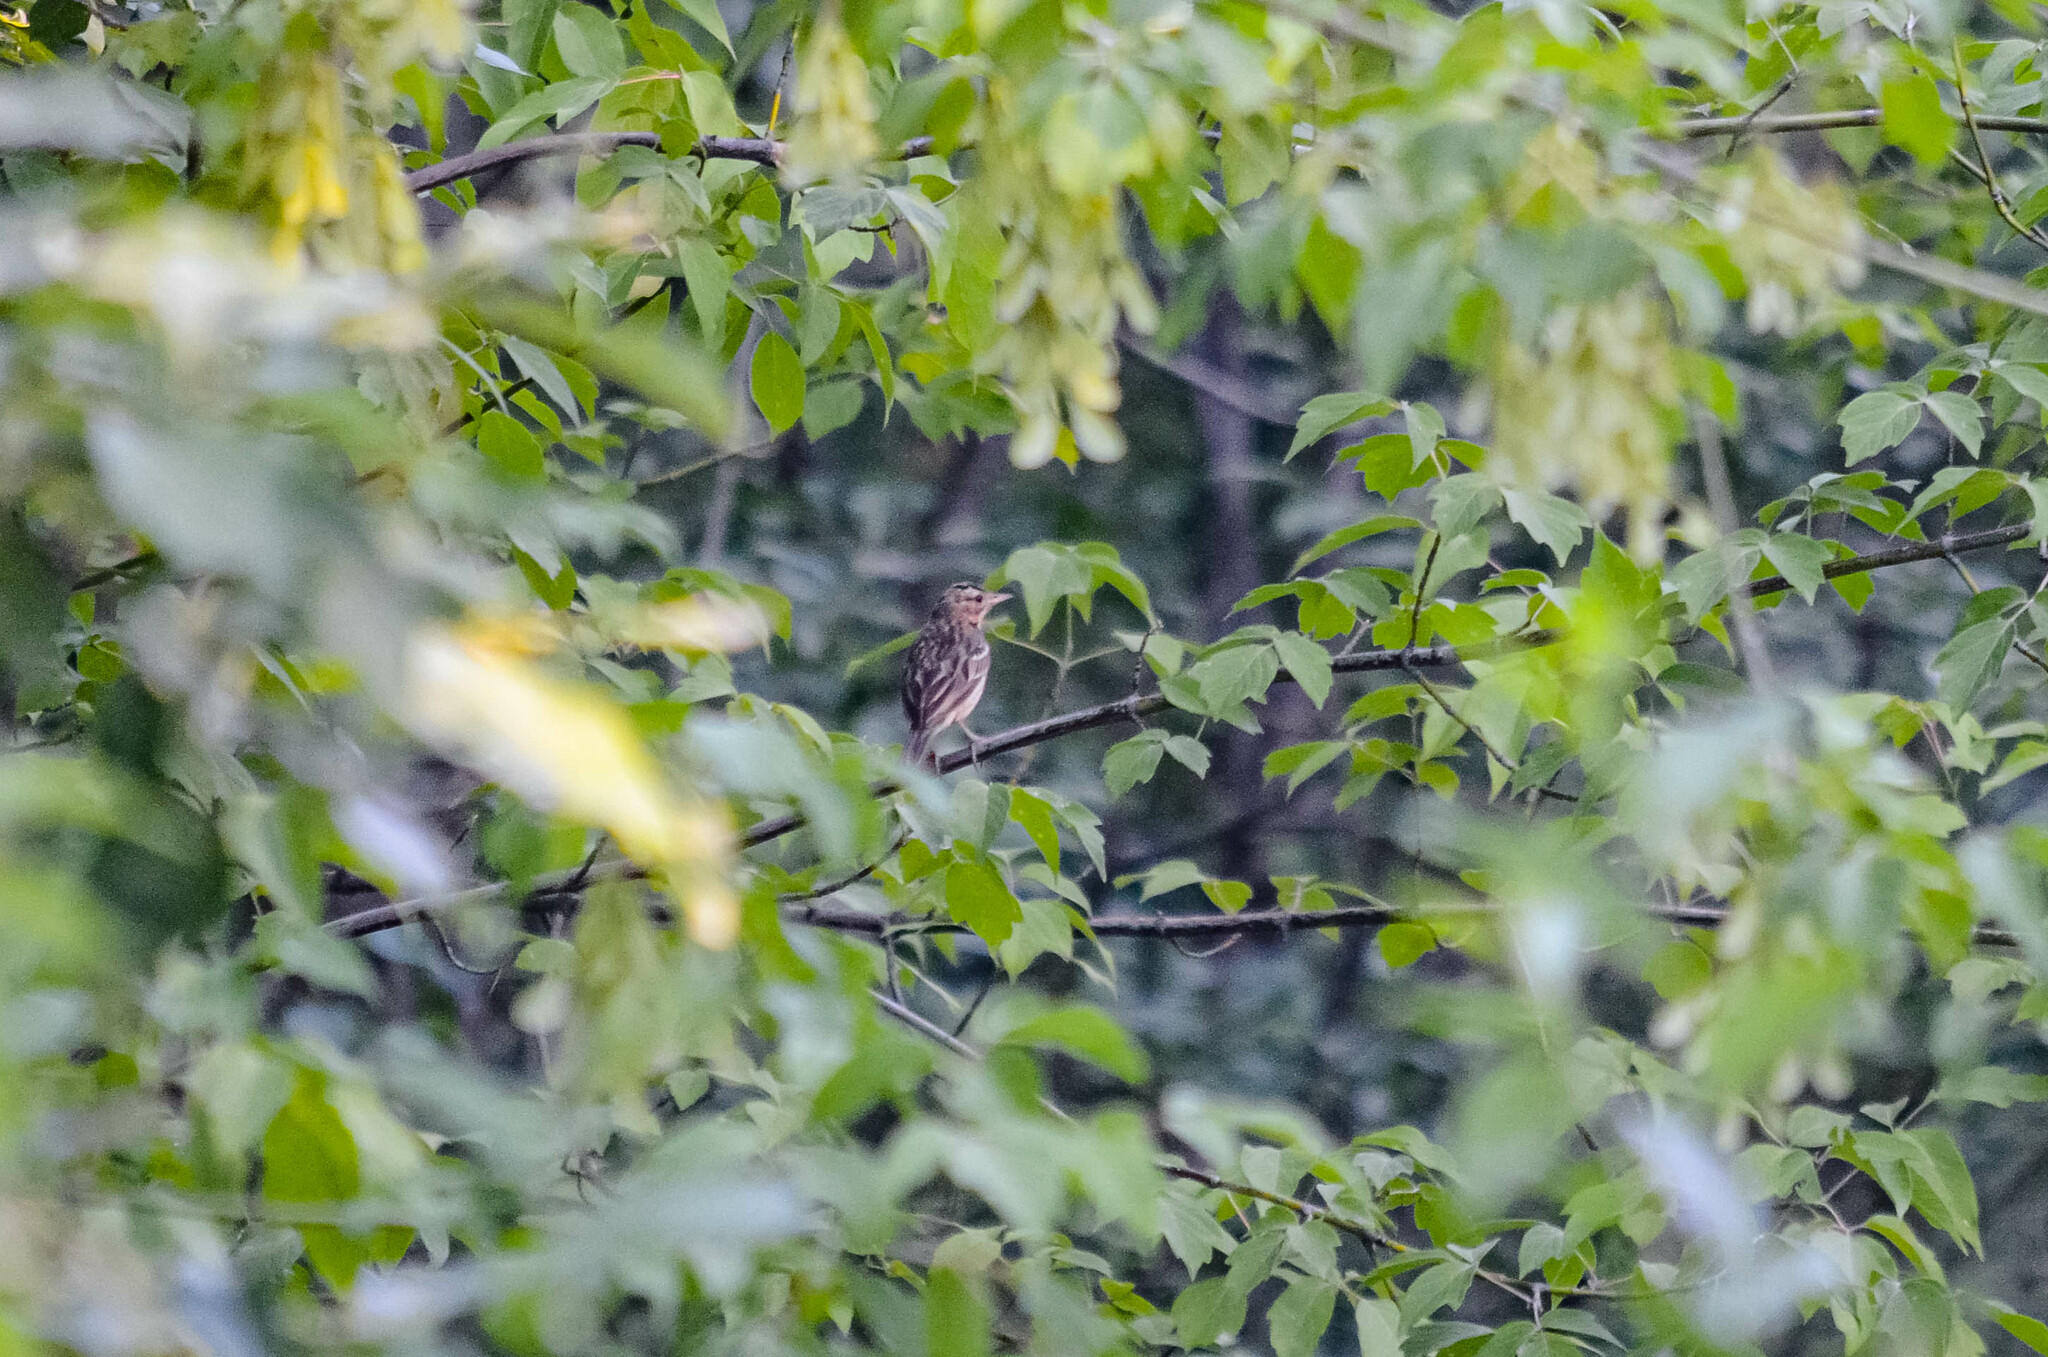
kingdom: Animalia
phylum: Chordata
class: Aves
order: Passeriformes
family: Motacillidae
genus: Anthus
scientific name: Anthus trivialis
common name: Tree pipit
